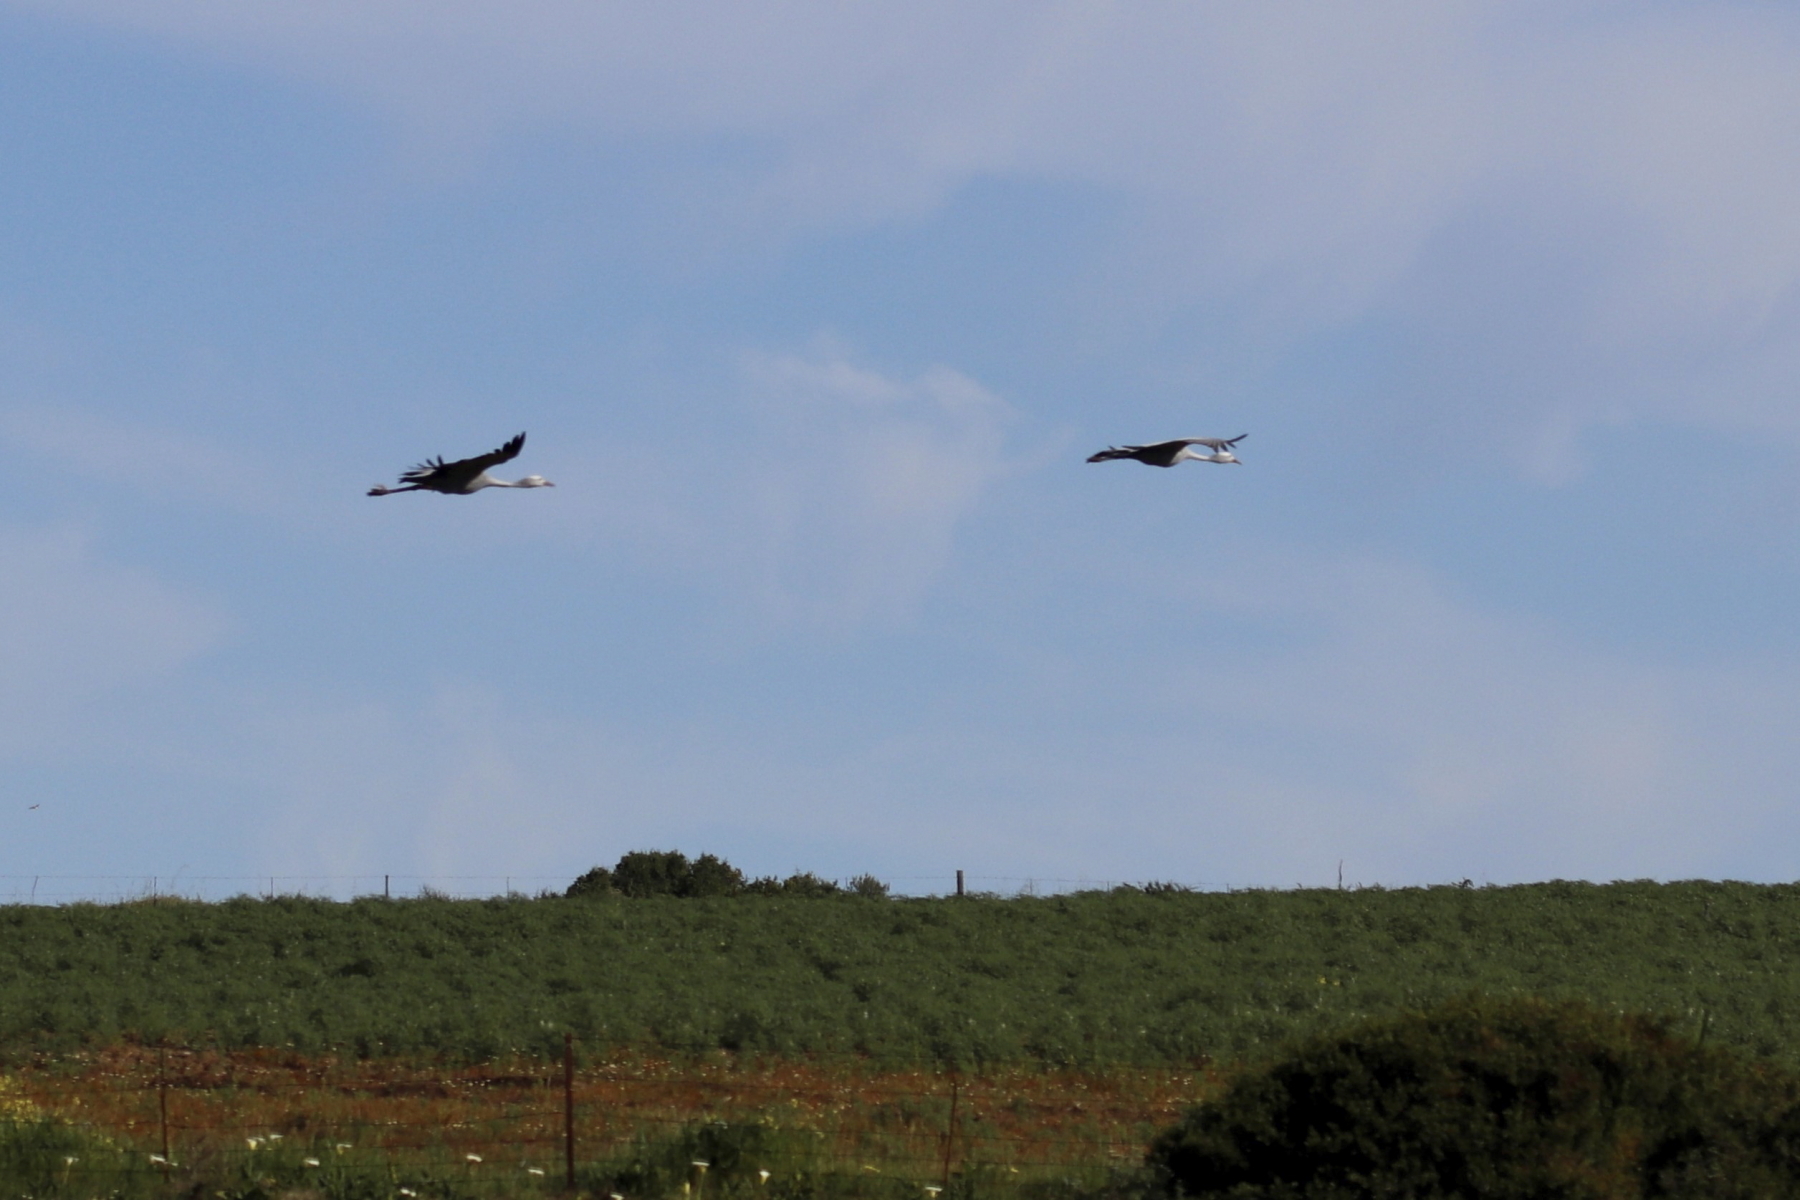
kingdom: Animalia
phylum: Chordata
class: Aves
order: Gruiformes
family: Gruidae
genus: Anthropoides
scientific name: Anthropoides paradiseus
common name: Blue crane
